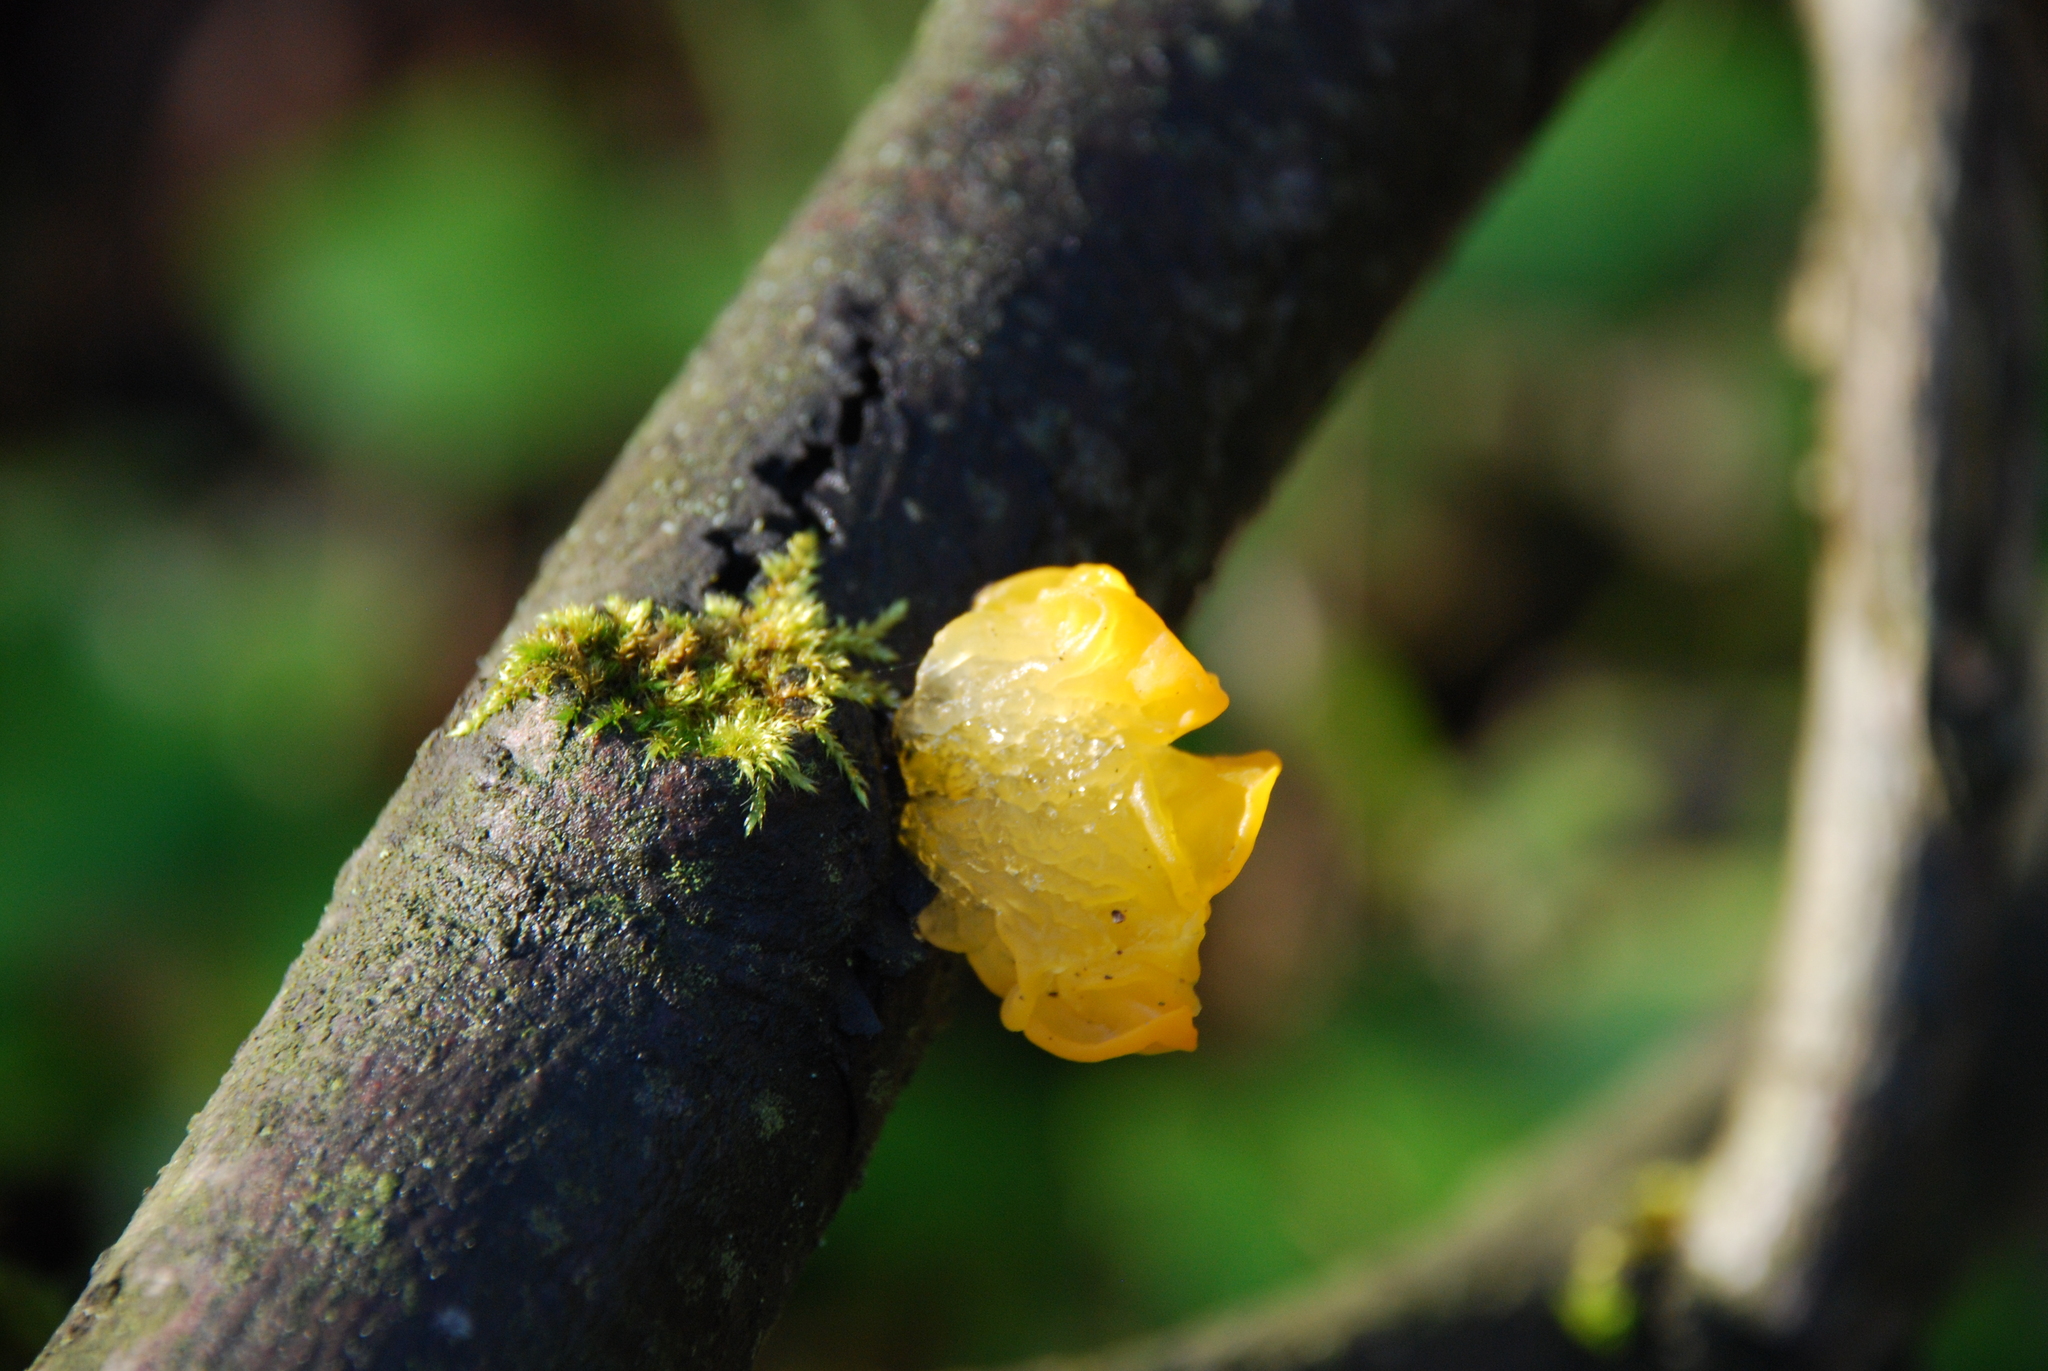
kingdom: Fungi
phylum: Basidiomycota
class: Tremellomycetes
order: Tremellales
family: Tremellaceae
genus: Tremella
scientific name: Tremella mesenterica
